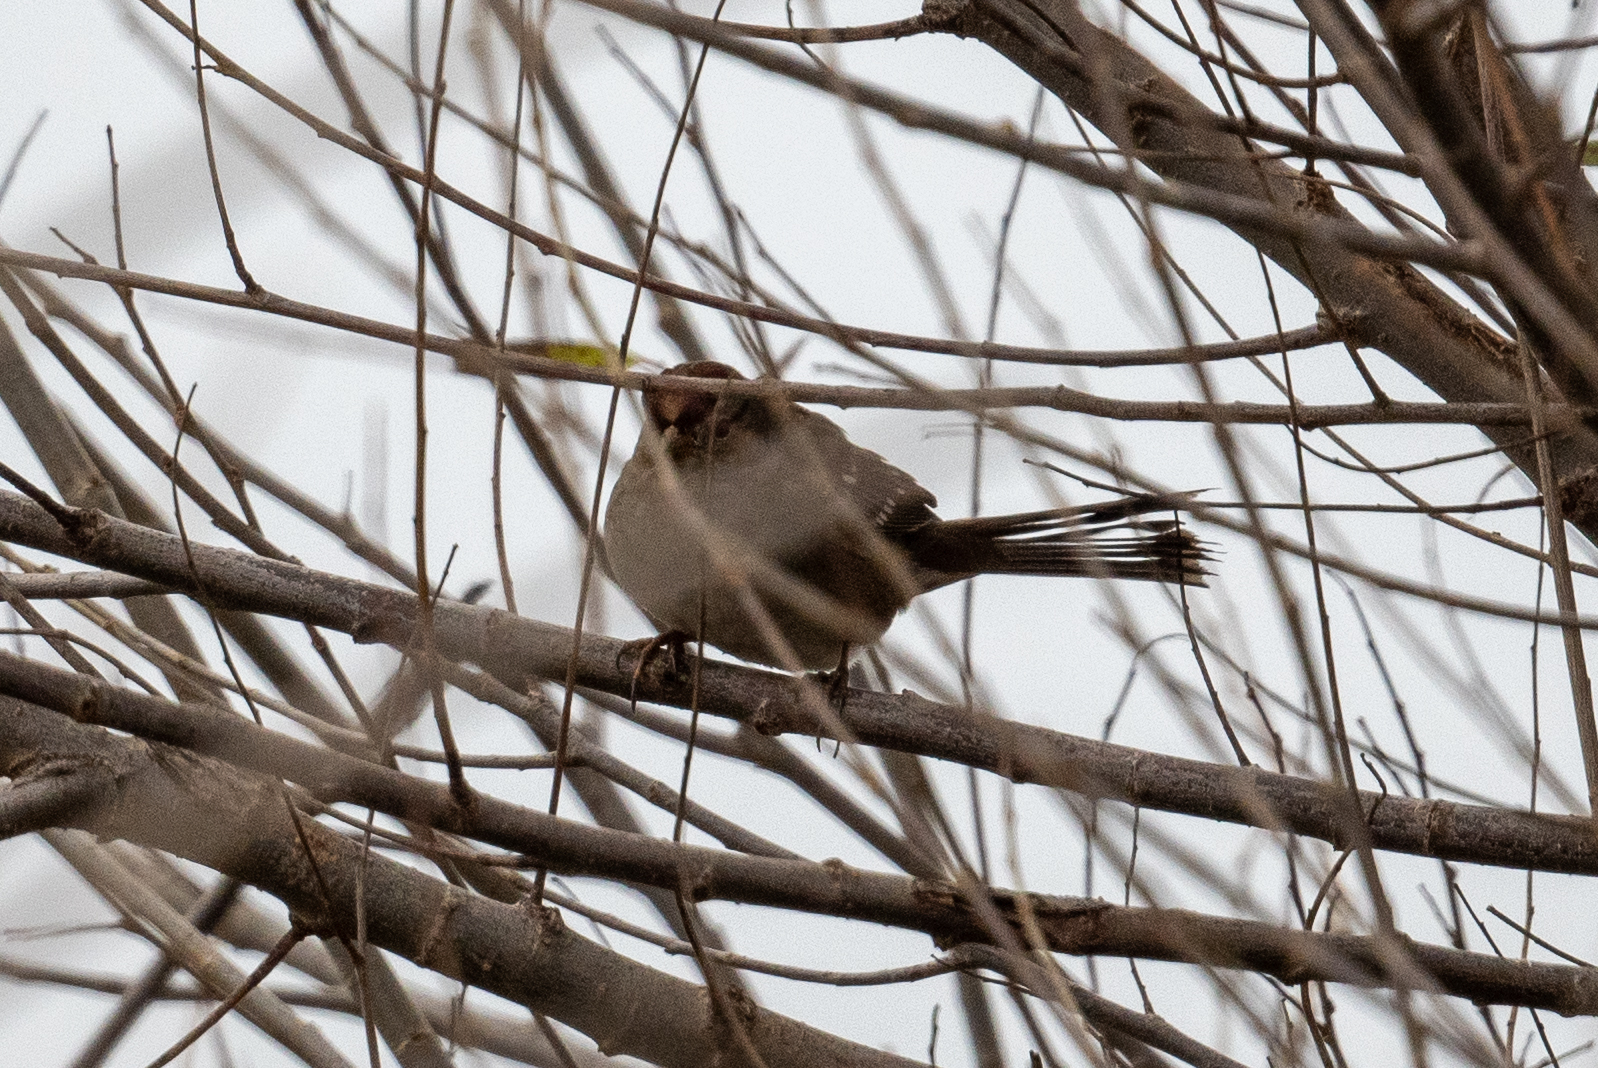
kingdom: Animalia
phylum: Chordata
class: Aves
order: Passeriformes
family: Passerellidae
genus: Zonotrichia
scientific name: Zonotrichia leucophrys
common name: White-crowned sparrow
